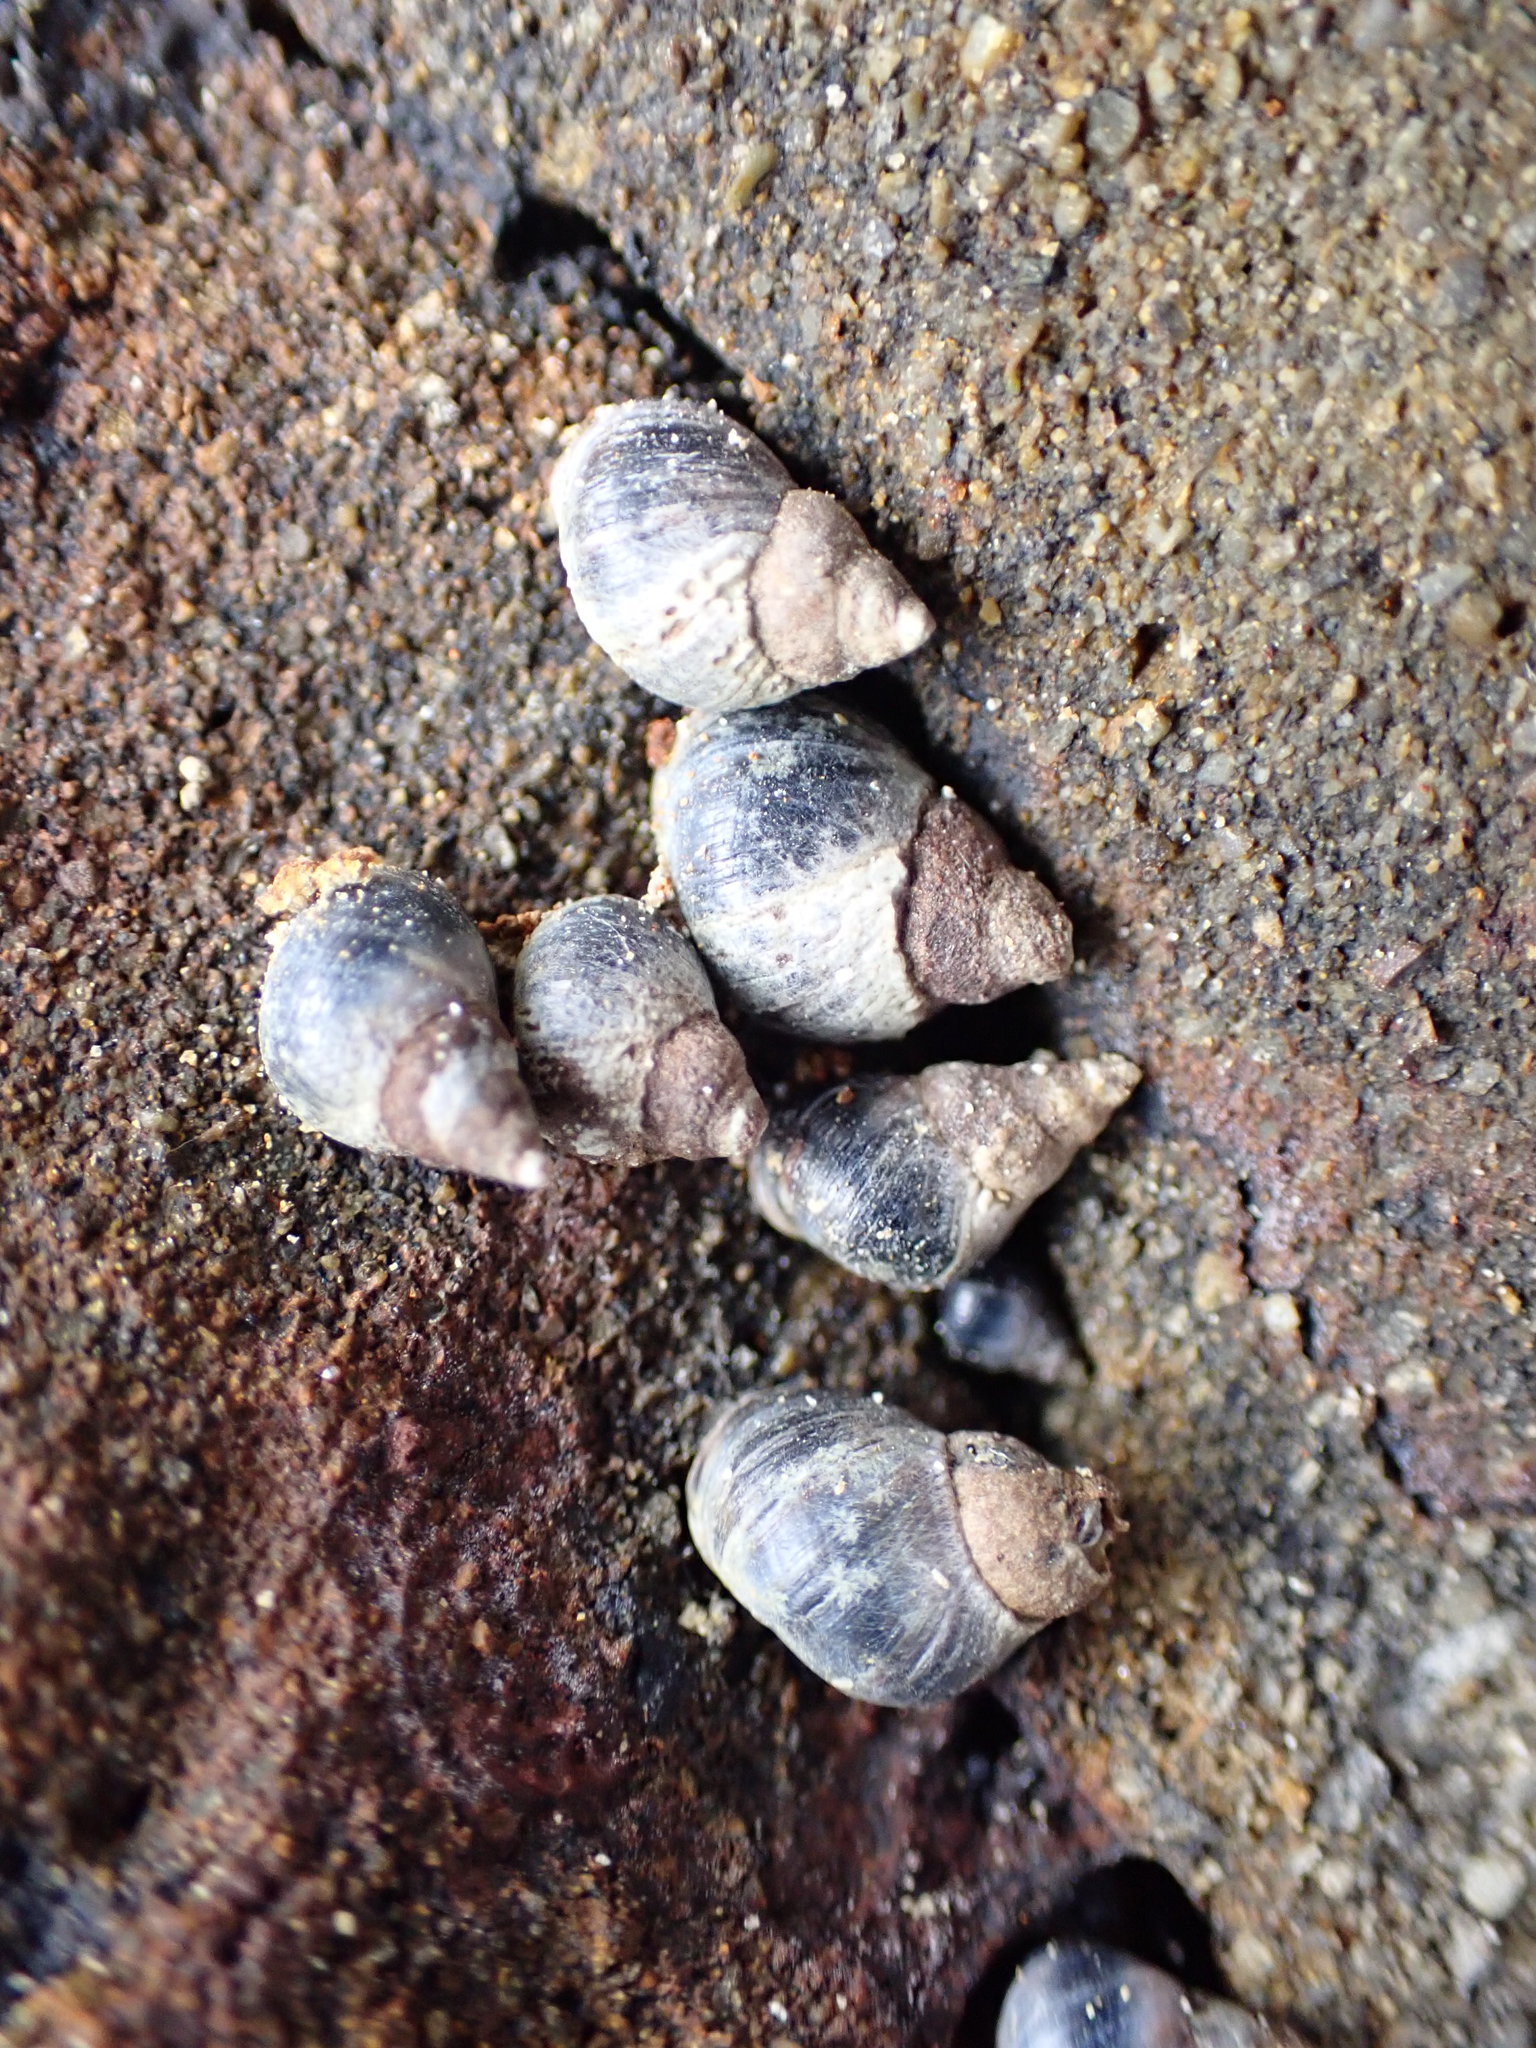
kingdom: Animalia
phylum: Mollusca
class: Gastropoda
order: Littorinimorpha
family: Littorinidae
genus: Austrolittorina
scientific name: Austrolittorina antipodum
